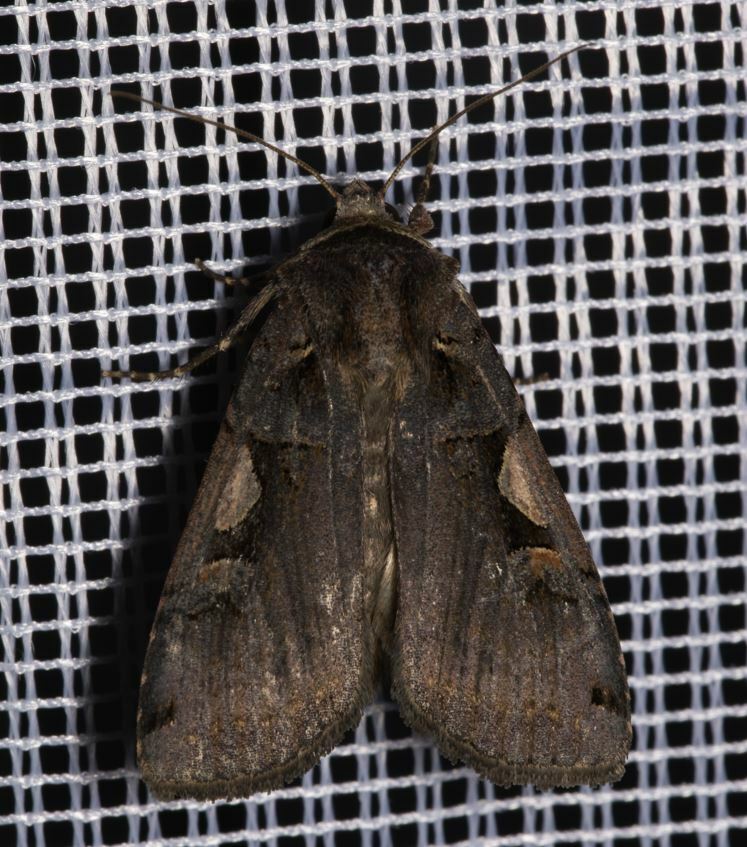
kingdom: Animalia
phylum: Arthropoda
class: Insecta
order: Lepidoptera
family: Noctuidae
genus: Xestia
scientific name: Xestia c-nigrum
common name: Setaceous hebrew character
